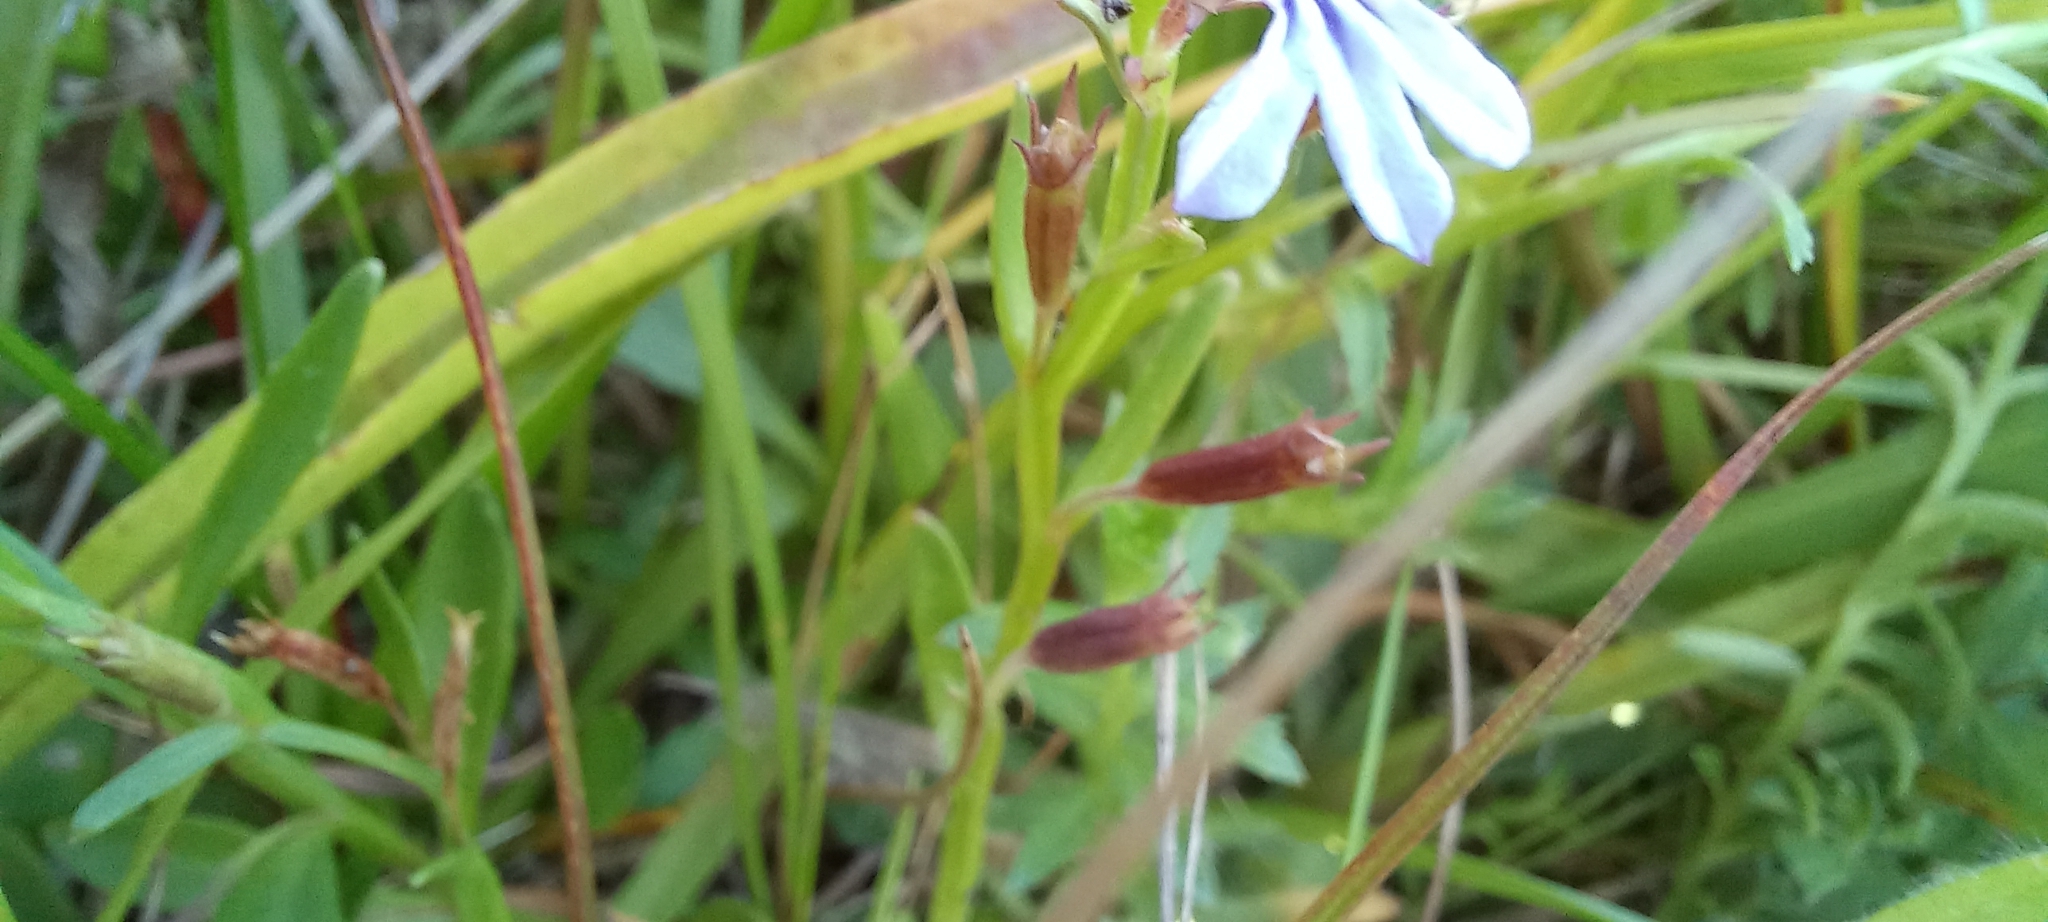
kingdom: Plantae
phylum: Tracheophyta
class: Magnoliopsida
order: Asterales
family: Campanulaceae
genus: Lobelia
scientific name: Lobelia anceps
